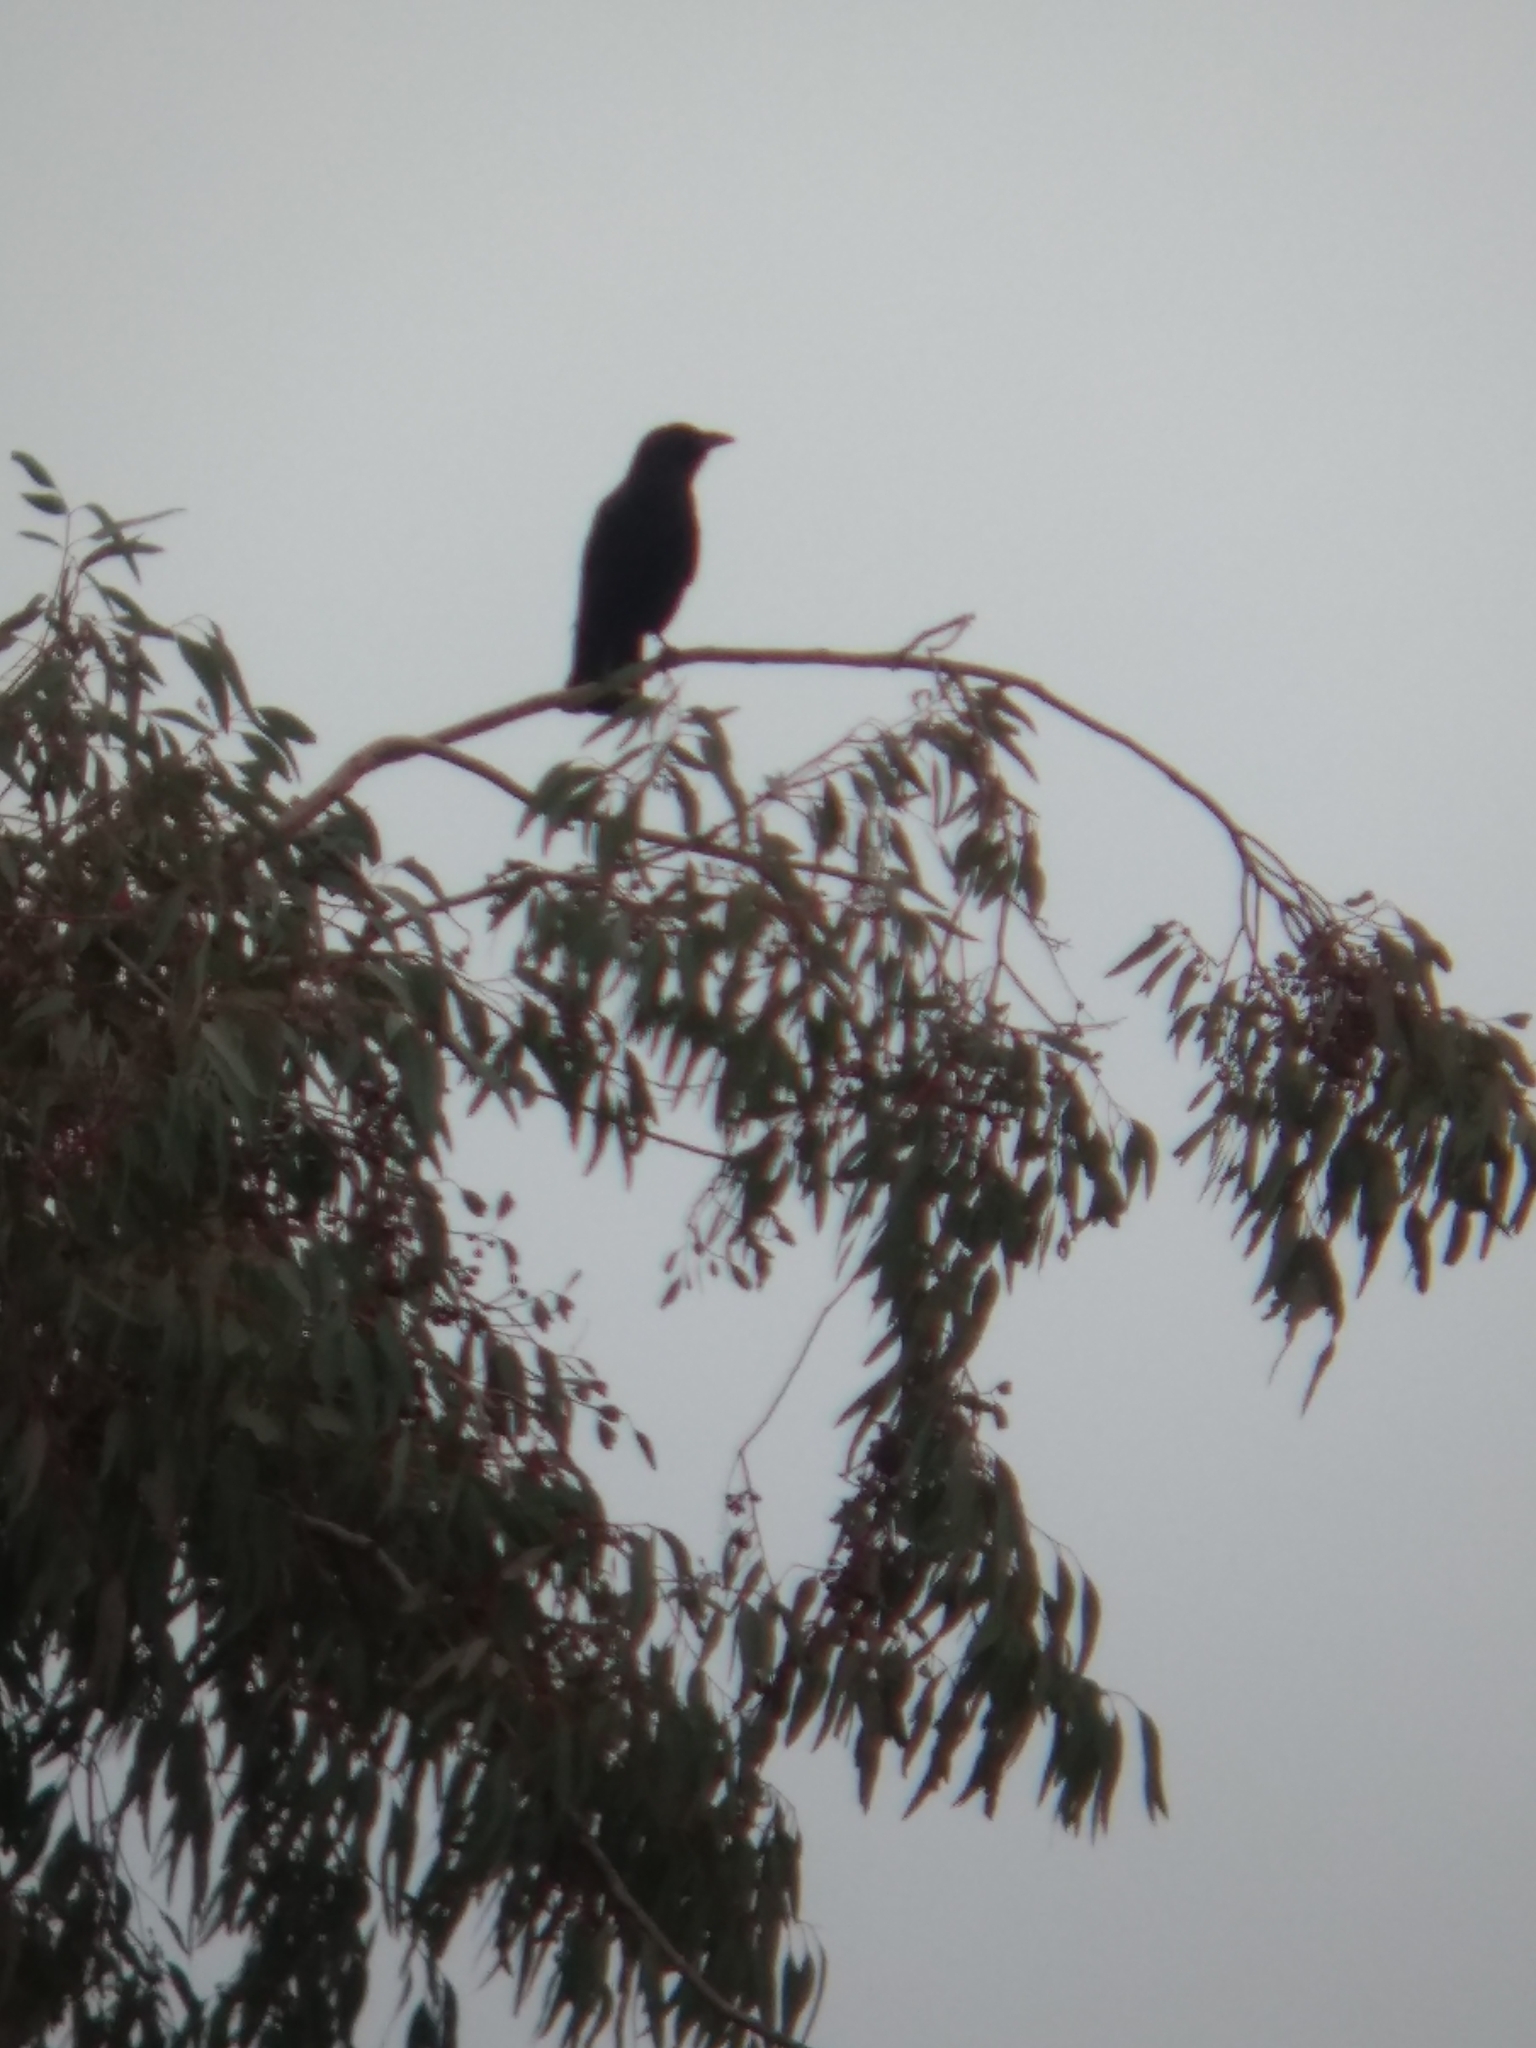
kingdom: Animalia
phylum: Chordata
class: Aves
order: Passeriformes
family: Corvidae
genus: Corvus
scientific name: Corvus brachyrhynchos
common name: American crow
